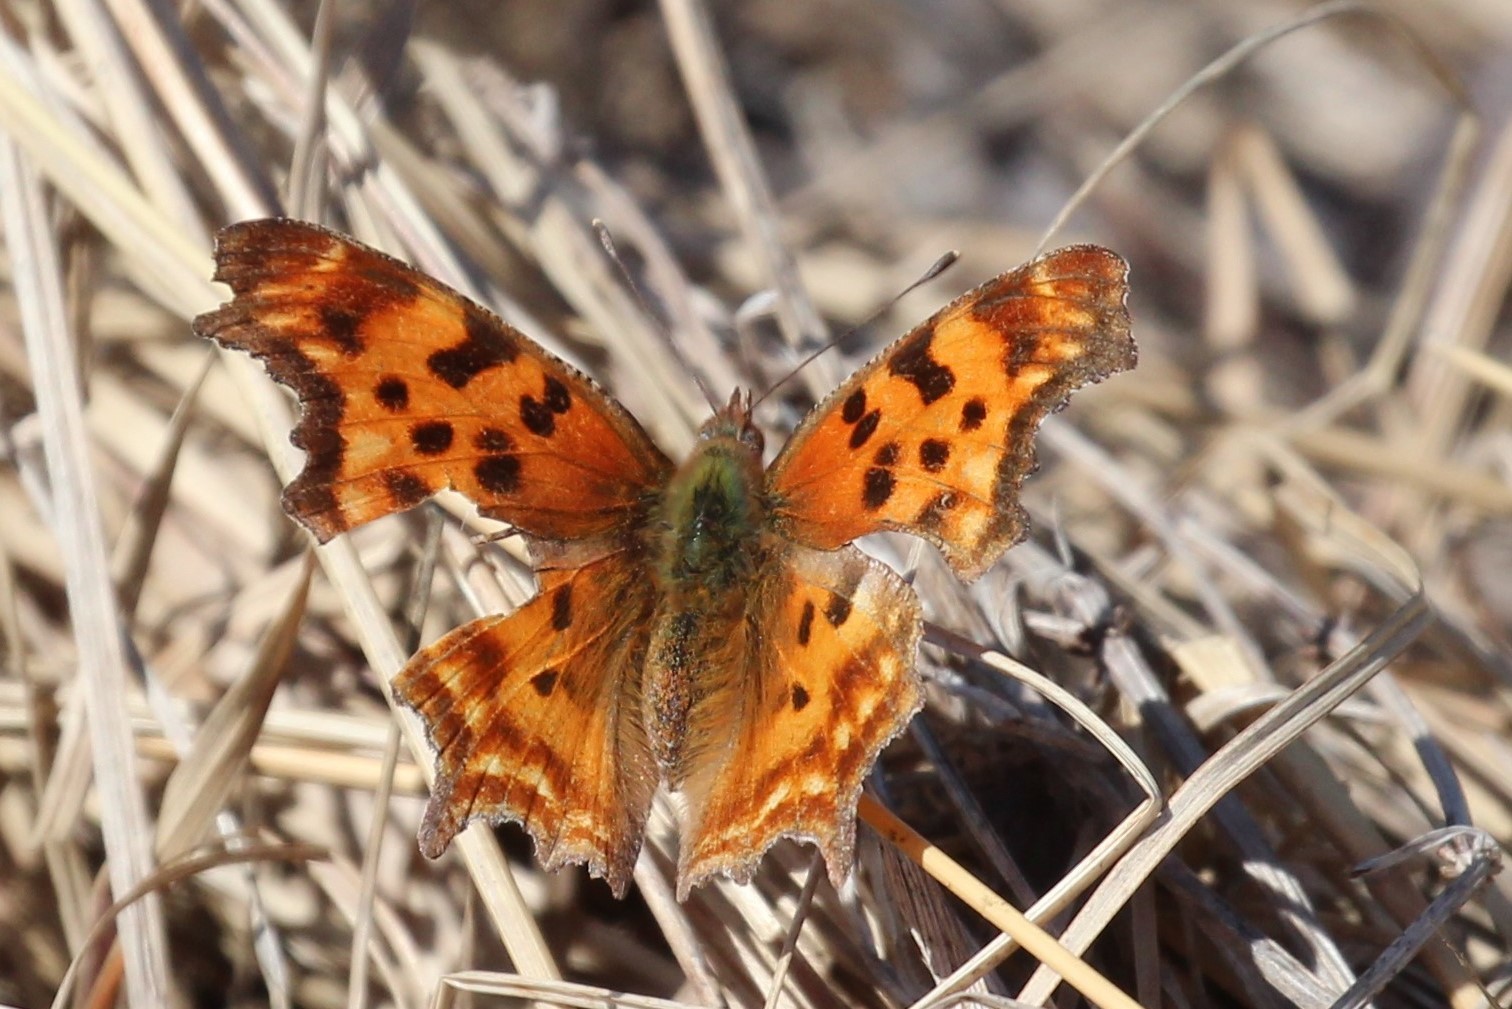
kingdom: Animalia
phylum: Arthropoda
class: Insecta
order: Lepidoptera
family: Nymphalidae
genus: Polygonia
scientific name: Polygonia satyrus
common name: Satyr angle wing
